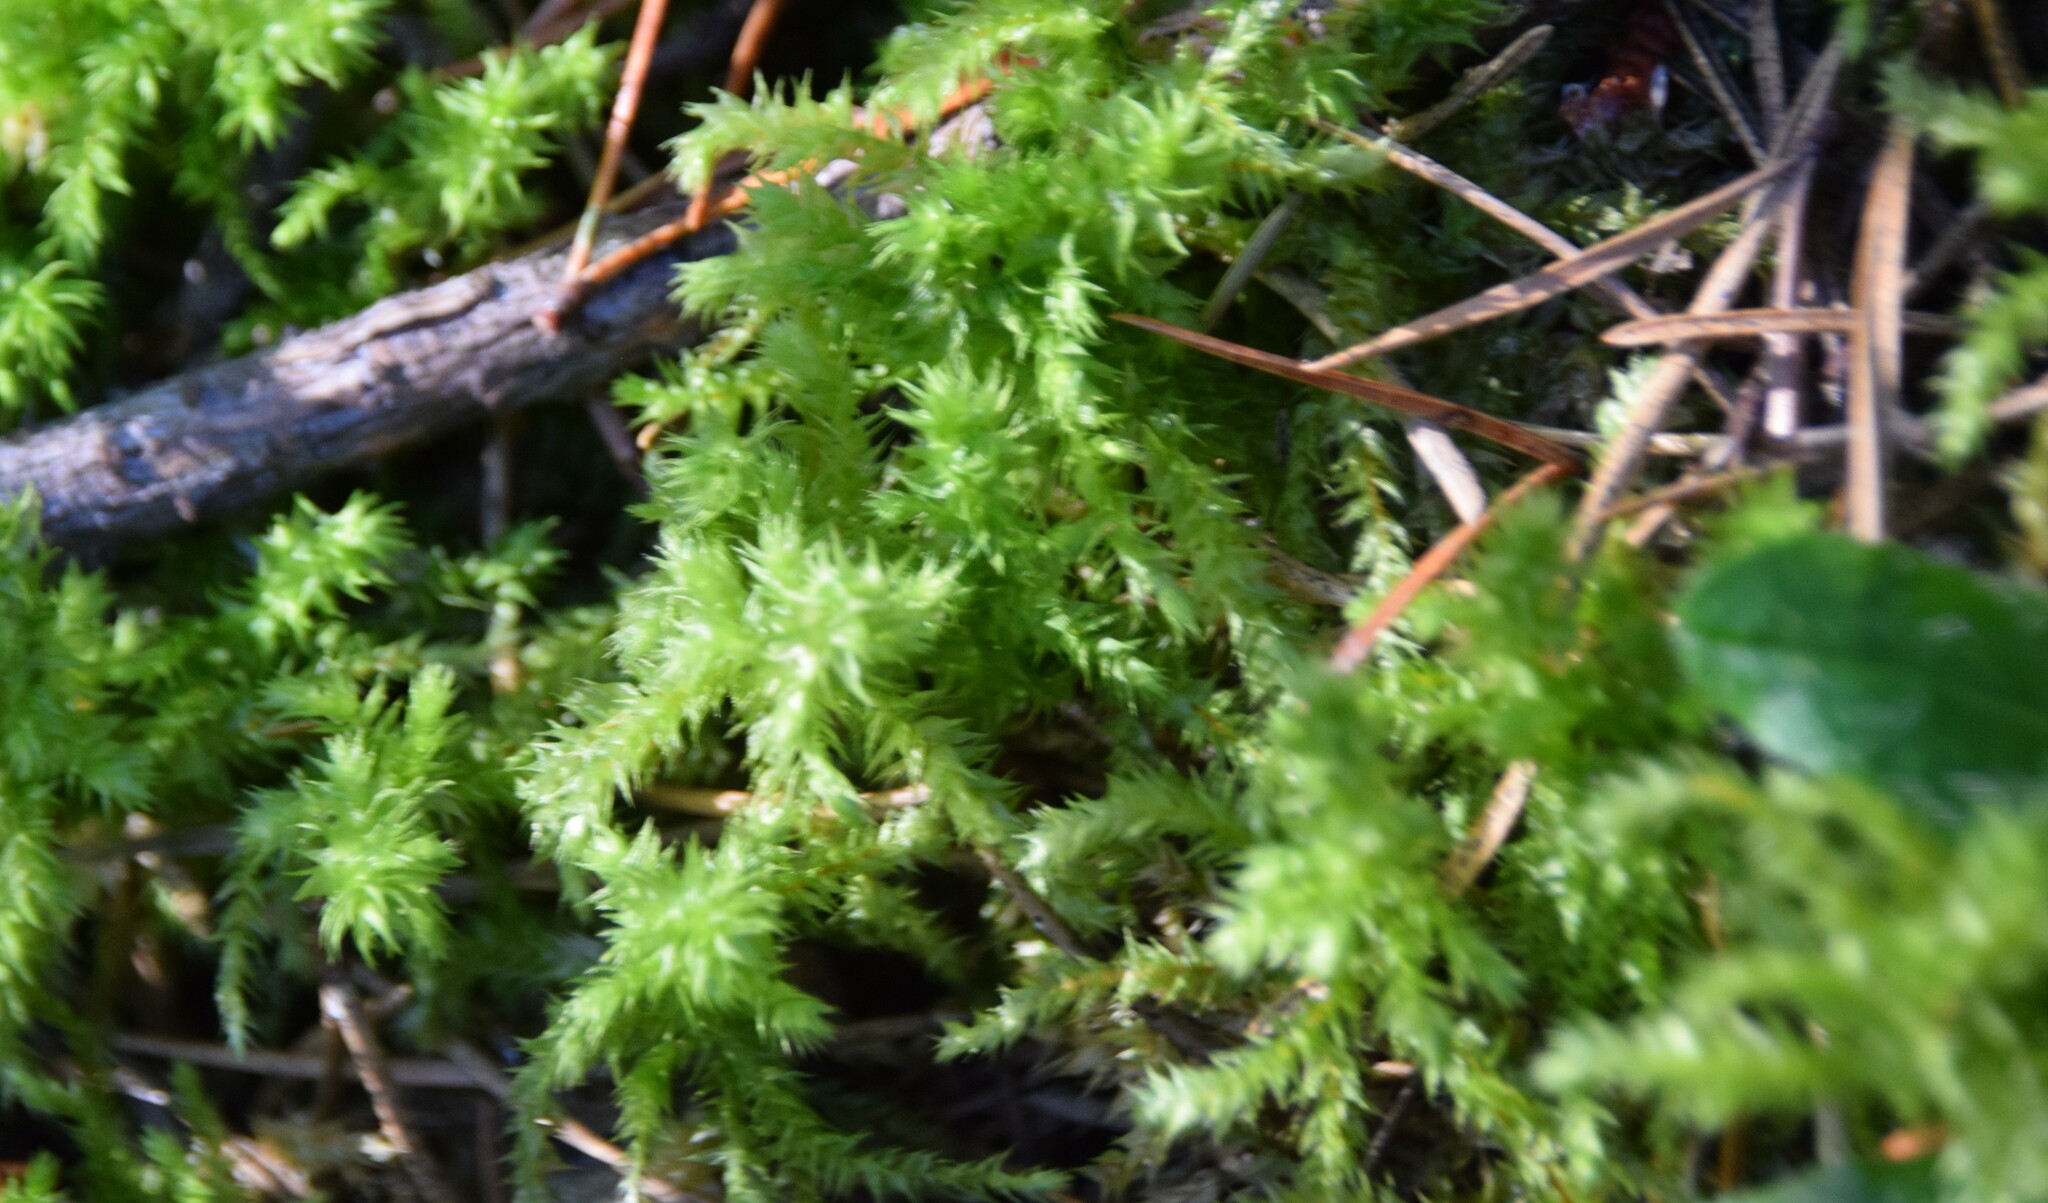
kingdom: Plantae
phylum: Bryophyta
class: Bryopsida
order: Hypnales
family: Hylocomiaceae
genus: Hylocomiadelphus
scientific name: Hylocomiadelphus triquetrus
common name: Rough goose neck moss
